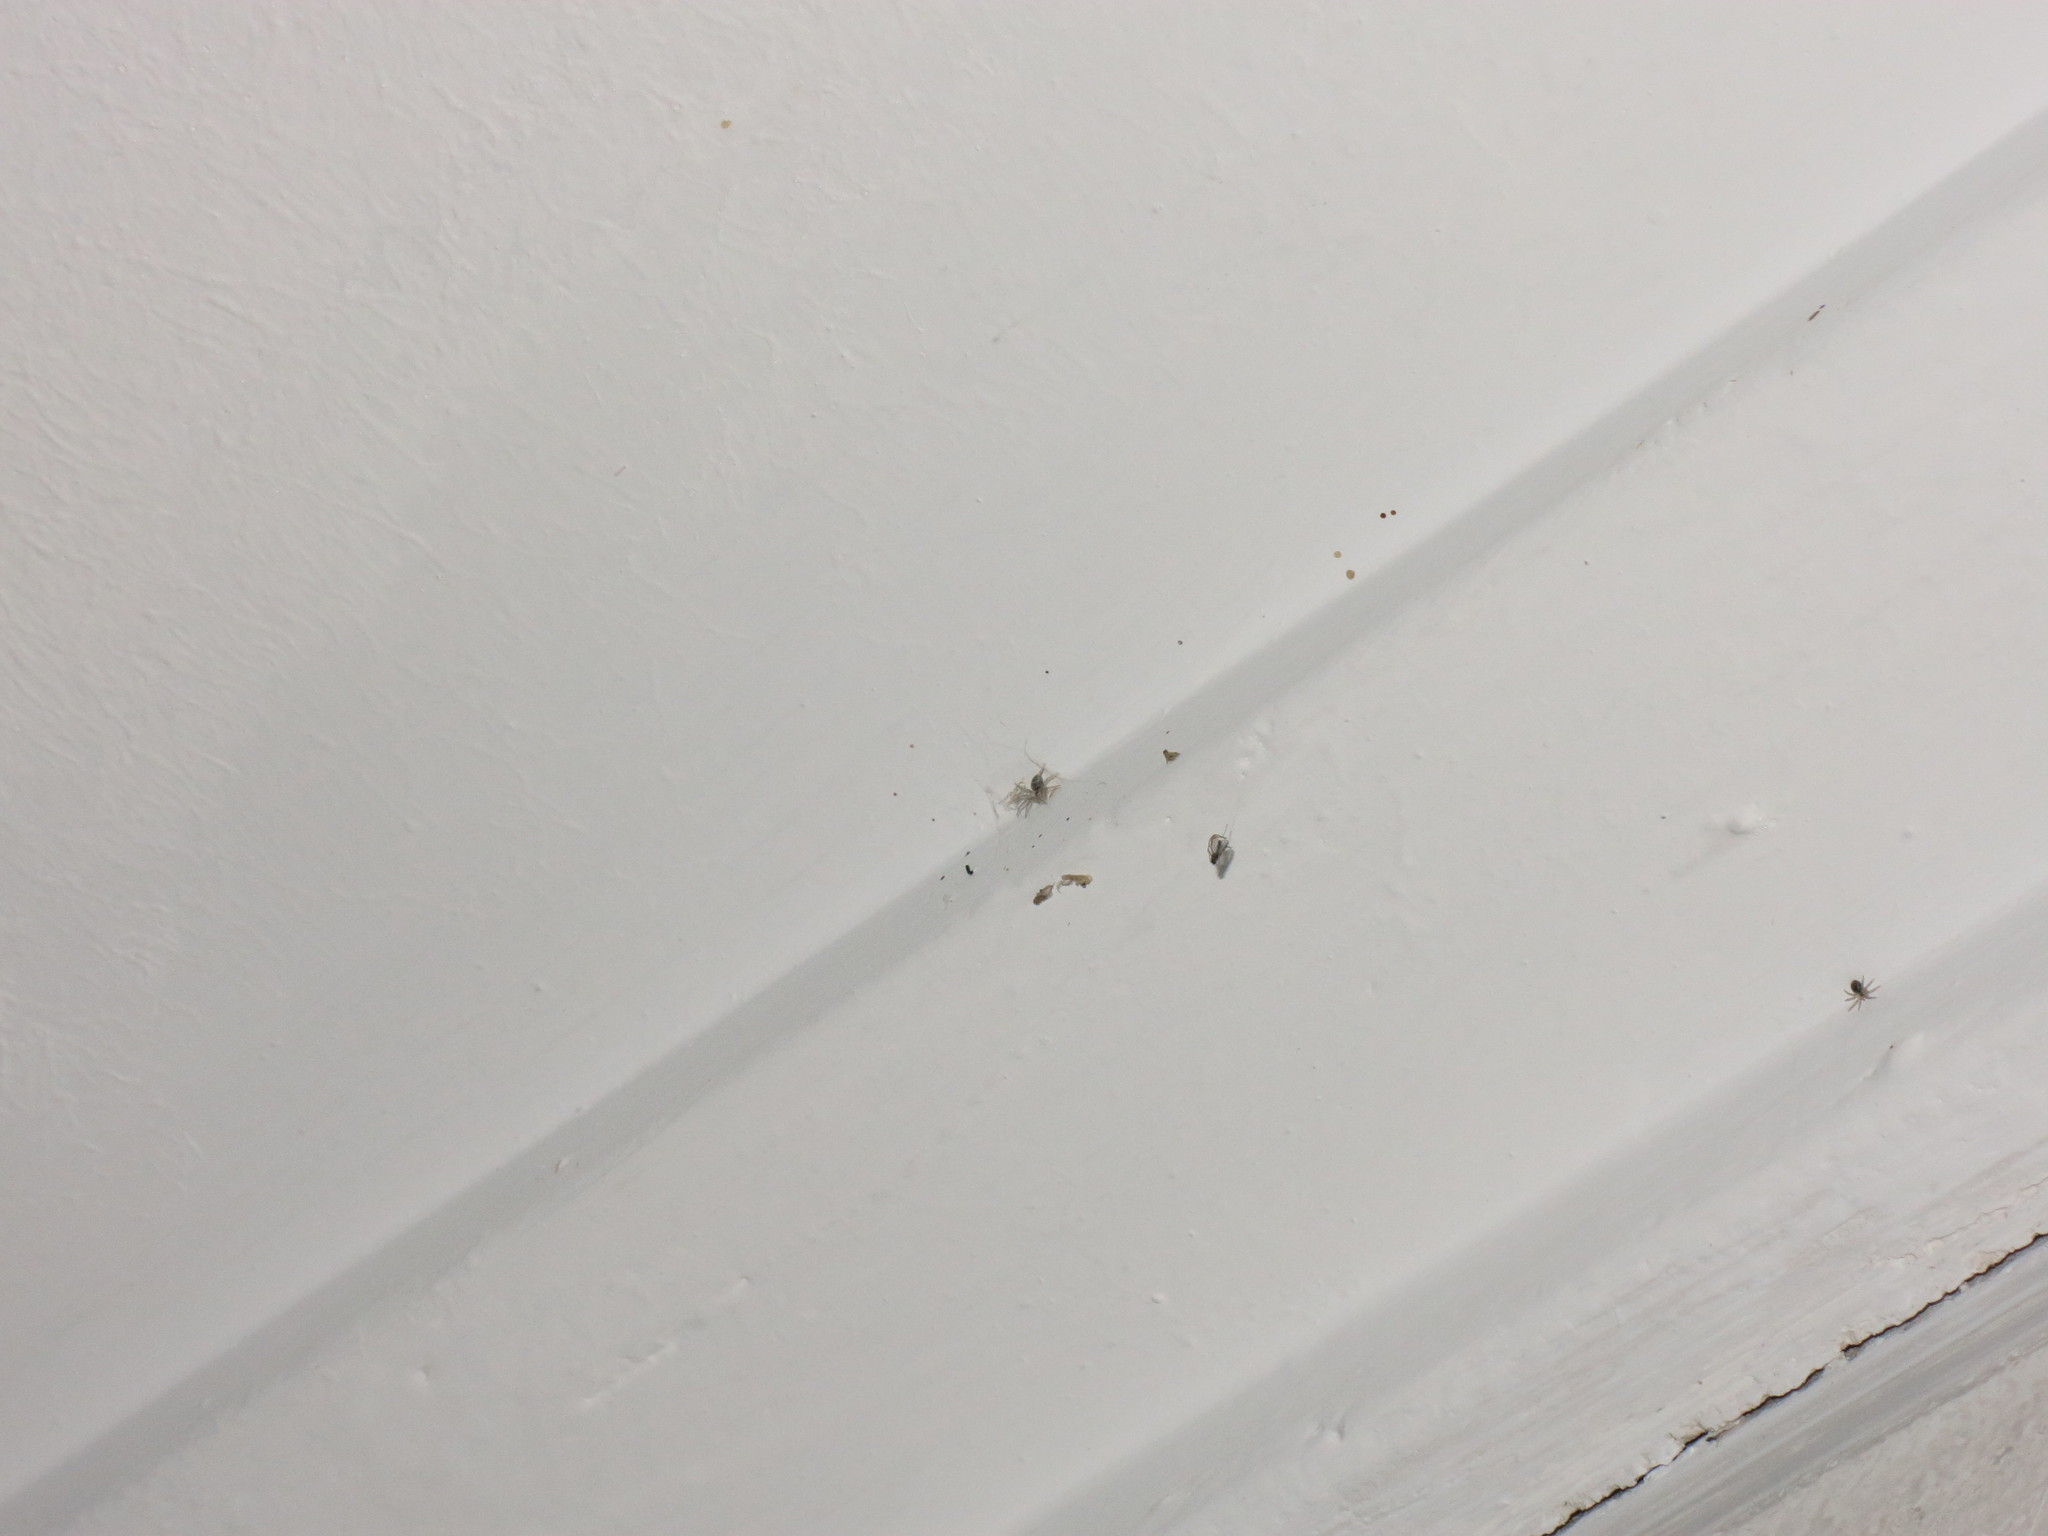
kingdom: Animalia
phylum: Arthropoda
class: Arachnida
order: Araneae
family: Oecobiidae
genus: Oecobius
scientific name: Oecobius navus
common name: Flatmesh weaver
